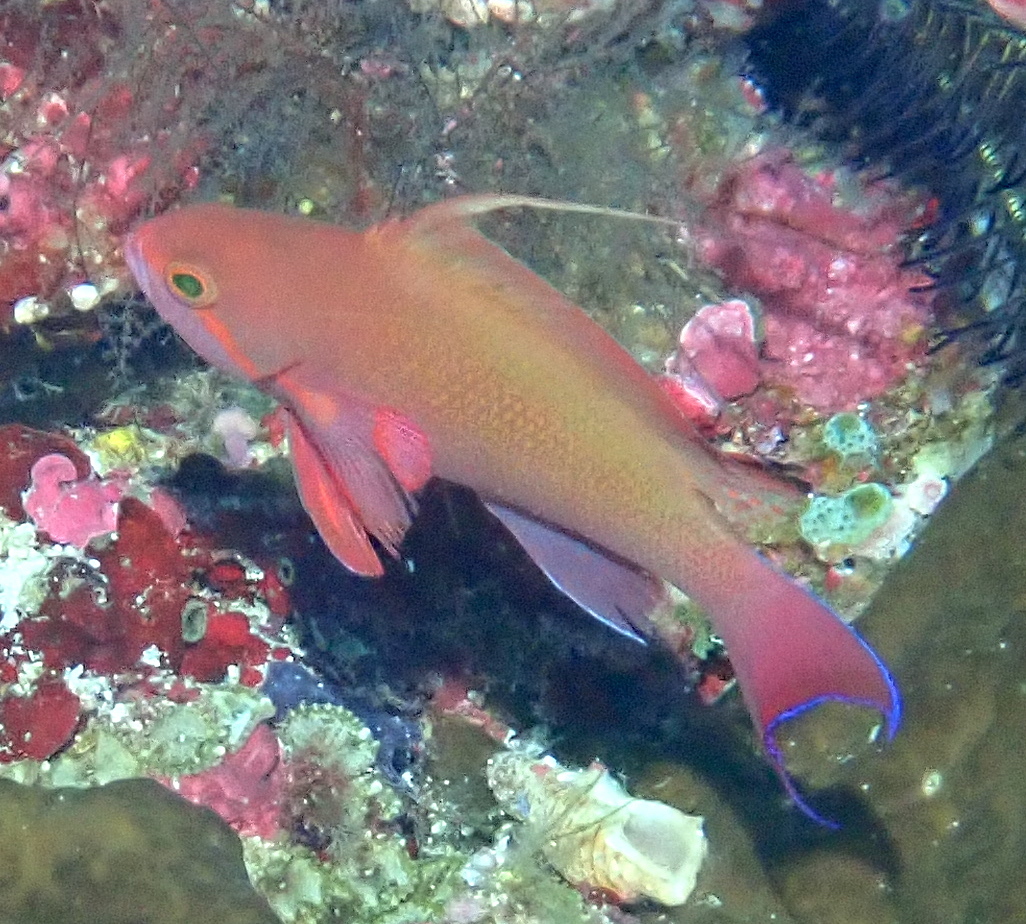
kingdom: Animalia
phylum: Chordata
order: Perciformes
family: Serranidae
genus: Pseudanthias
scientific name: Pseudanthias squamipinnis
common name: Scalefin anthias
